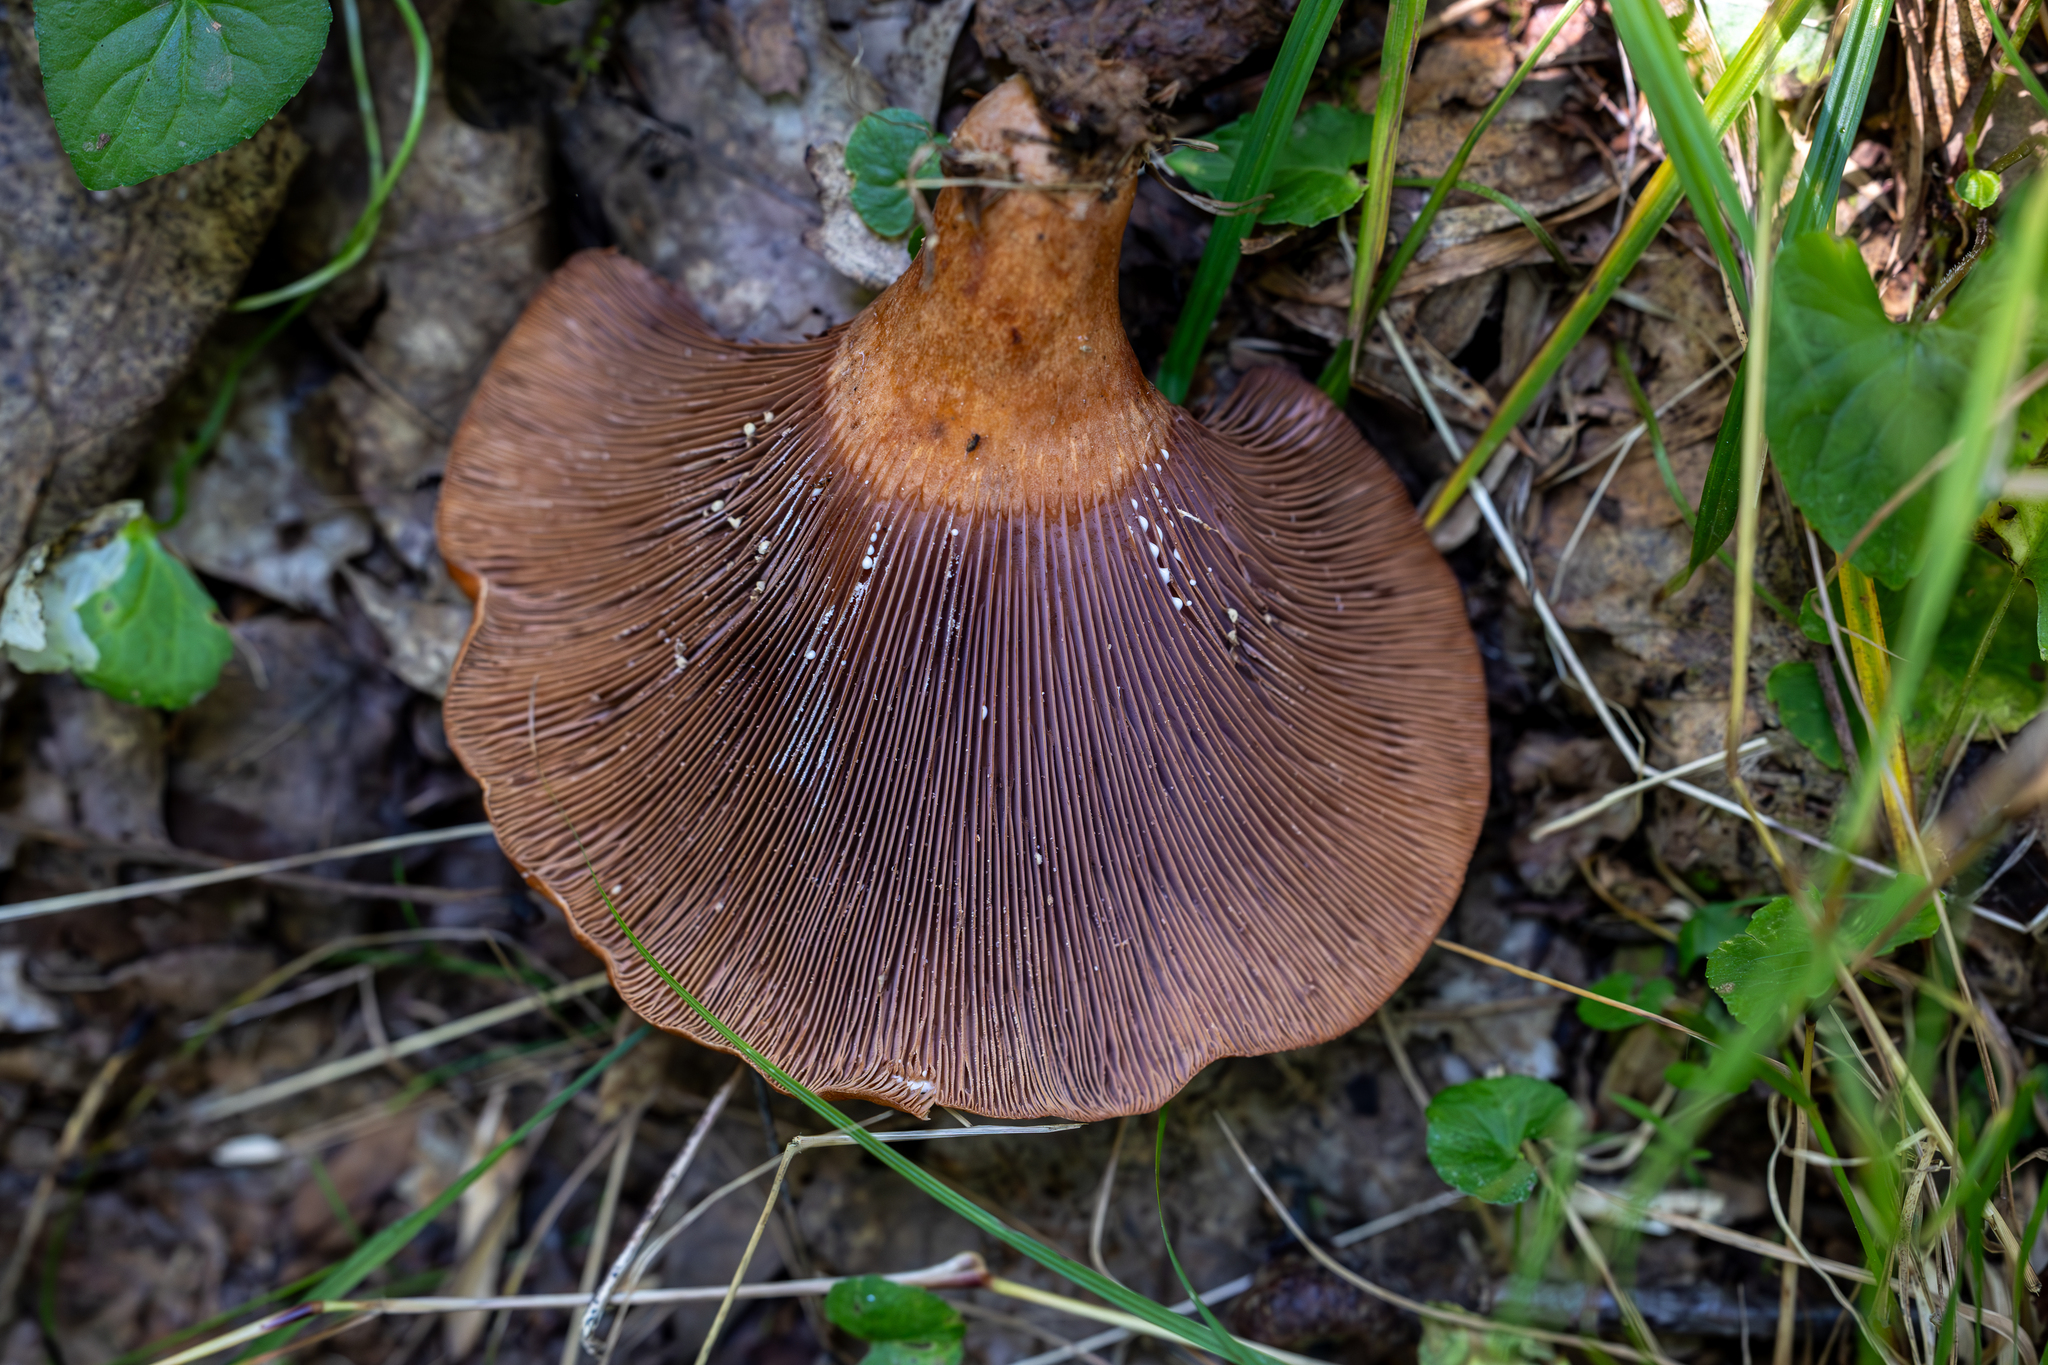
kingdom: Fungi
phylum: Basidiomycota
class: Agaricomycetes
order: Russulales
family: Russulaceae
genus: Lactarius
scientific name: Lactarius peckii
